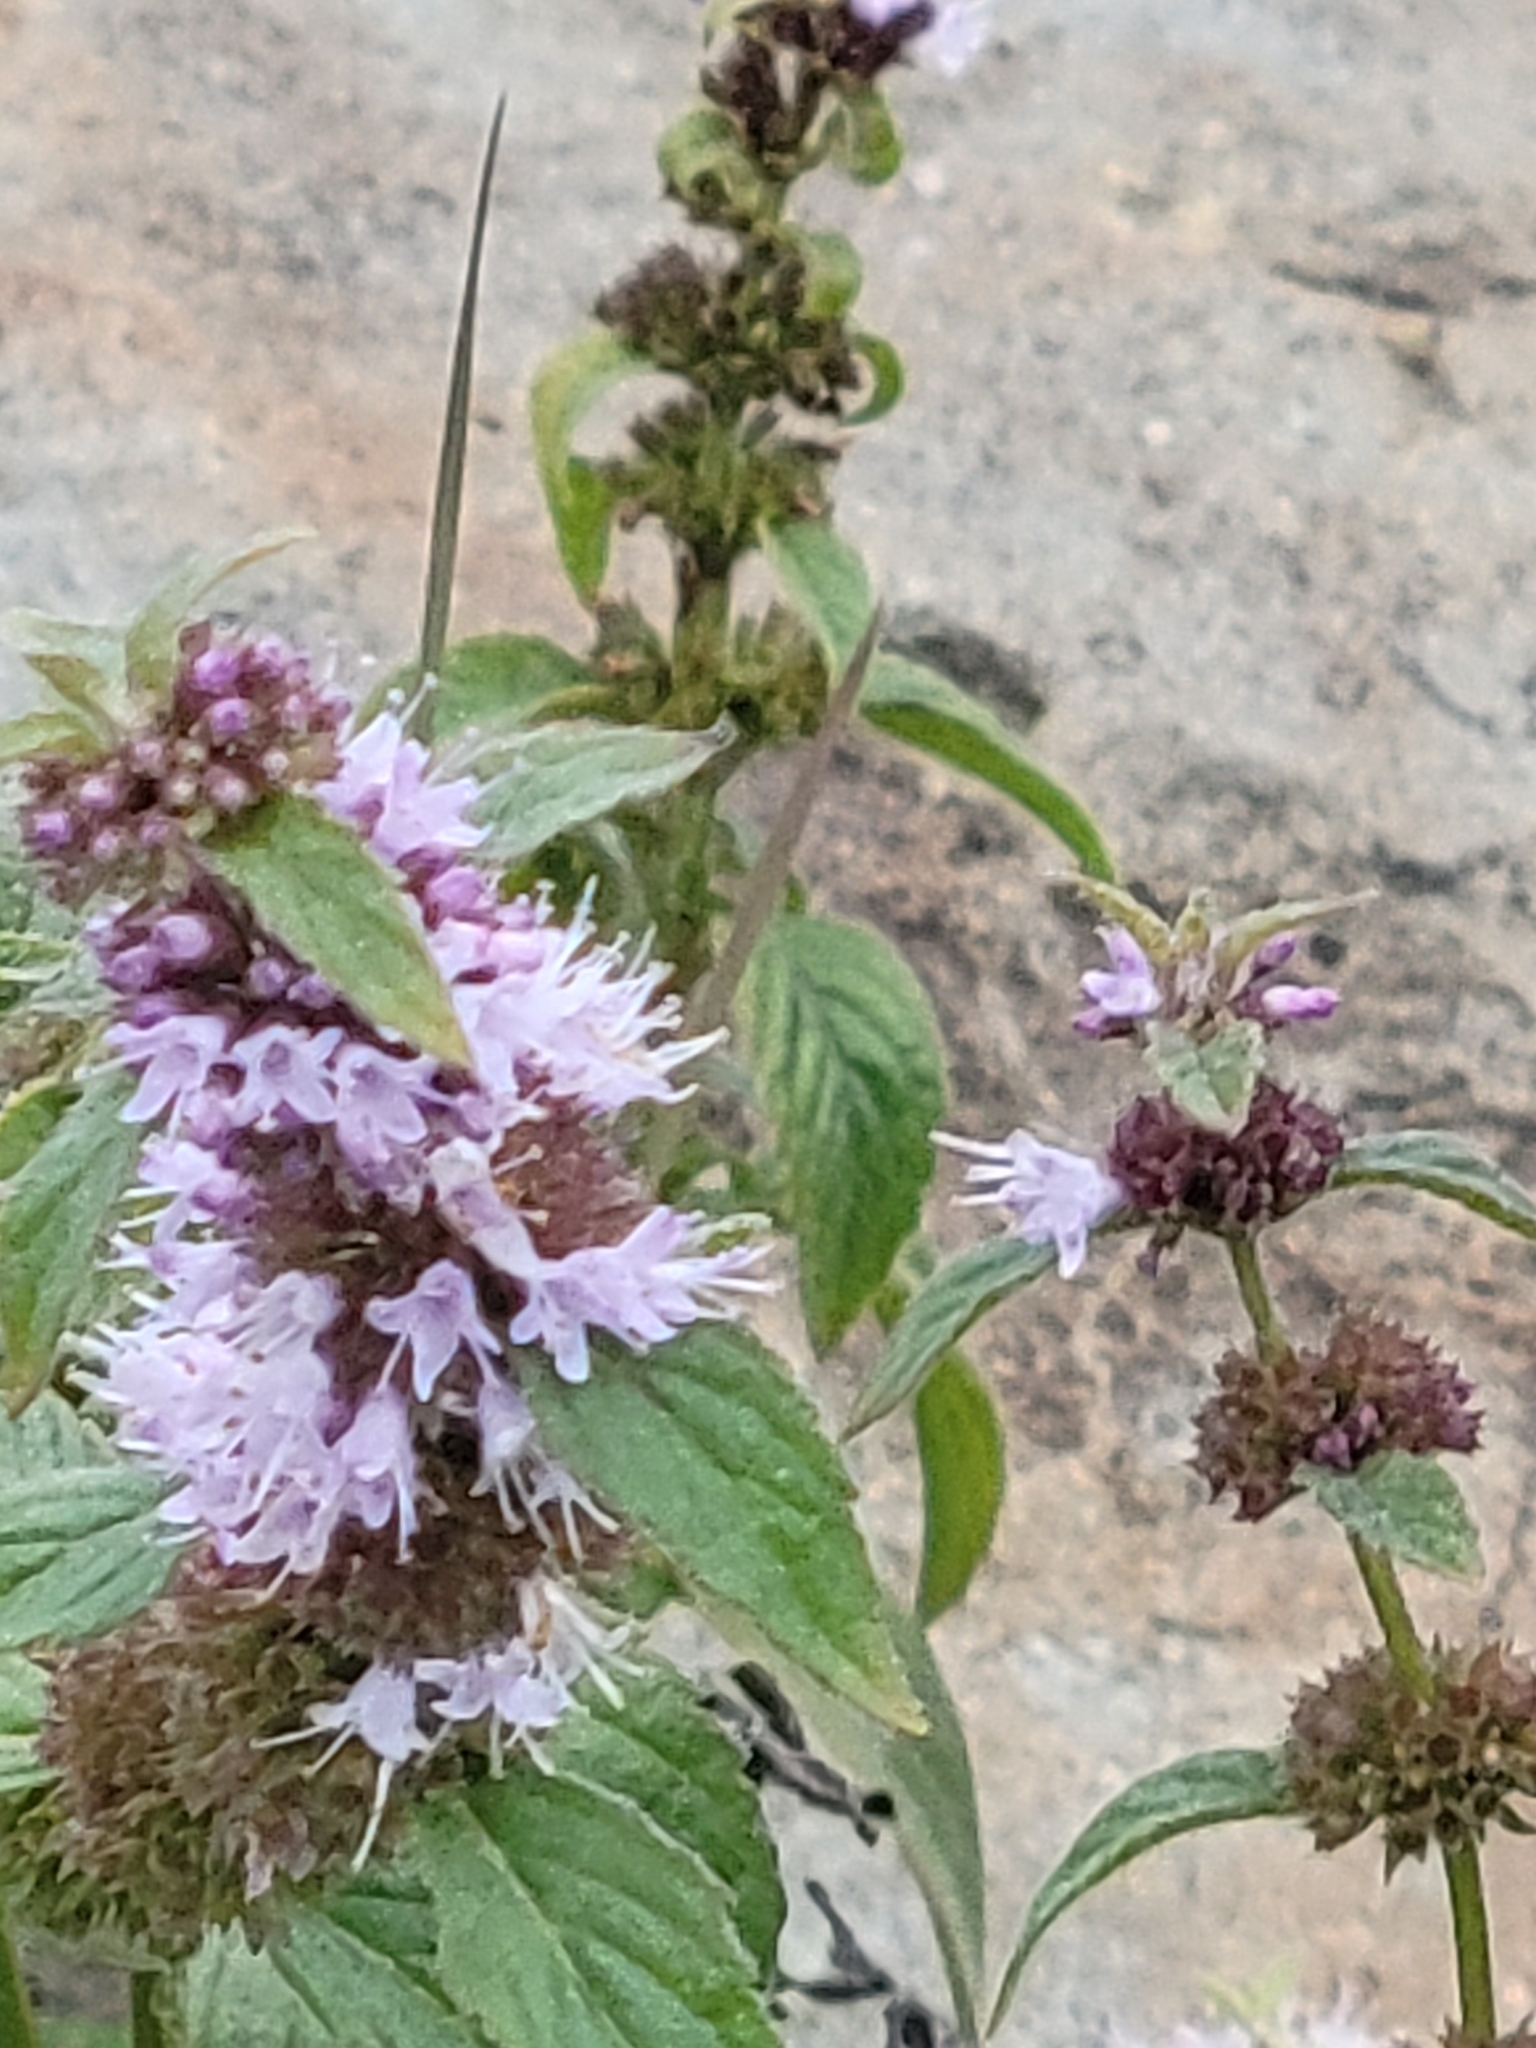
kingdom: Plantae
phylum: Tracheophyta
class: Magnoliopsida
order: Lamiales
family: Lamiaceae
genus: Mentha
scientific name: Mentha canadensis
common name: American corn mint
